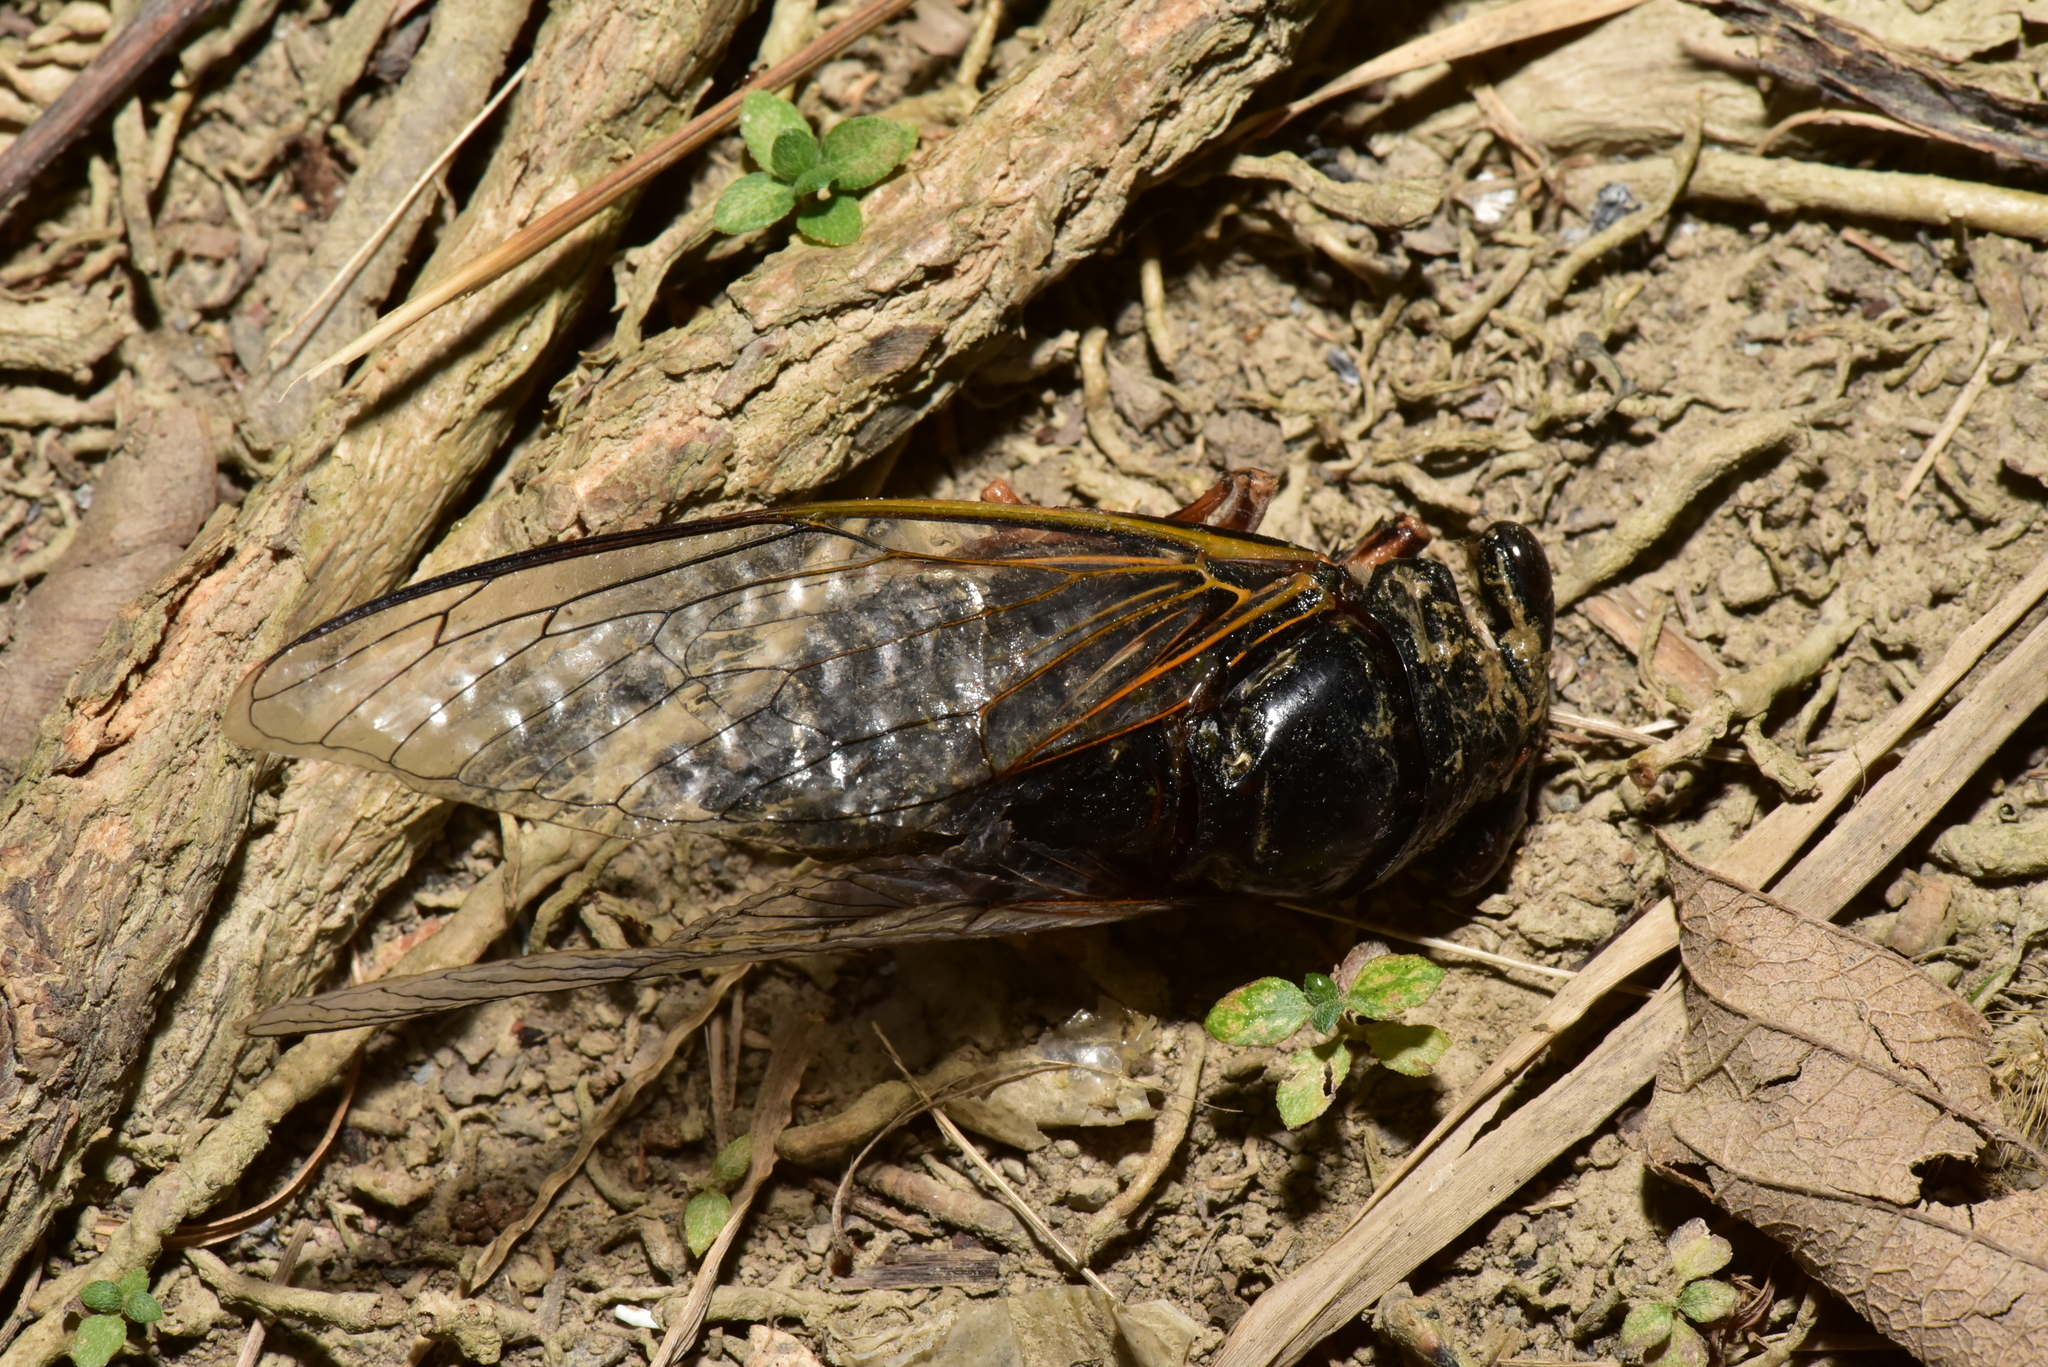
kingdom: Animalia
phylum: Arthropoda
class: Insecta
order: Hemiptera
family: Cicadidae
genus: Cryptotympana
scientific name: Cryptotympana takasagona
